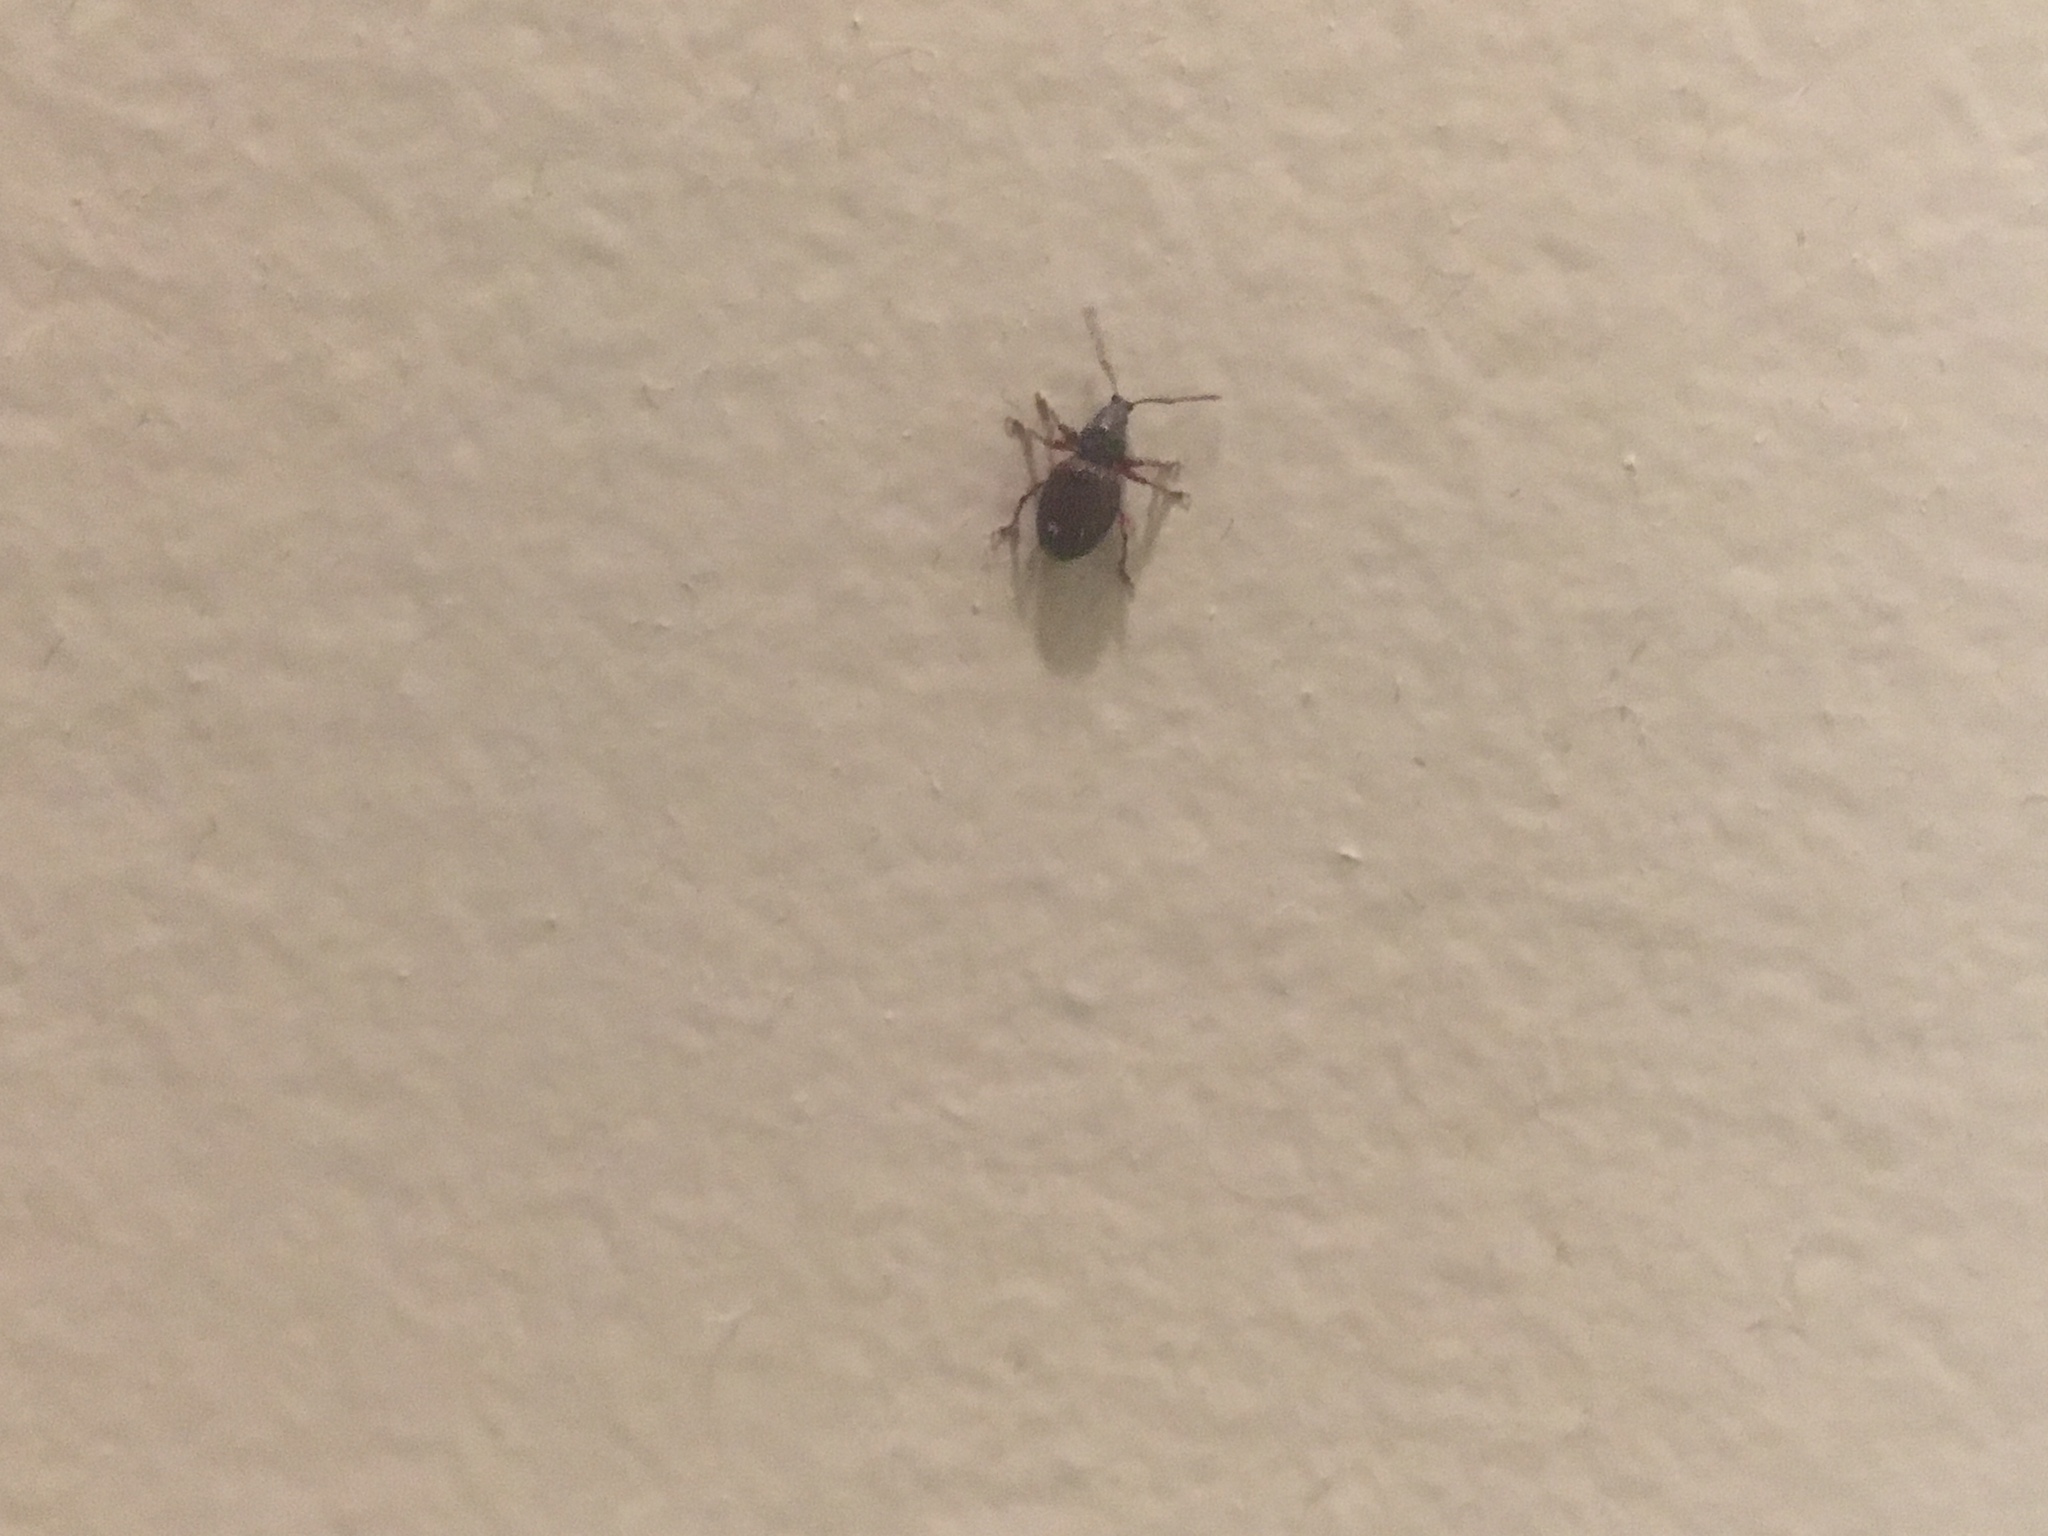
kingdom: Animalia
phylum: Arthropoda
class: Insecta
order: Coleoptera
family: Curculionidae
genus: Otiorhynchus
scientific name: Otiorhynchus ovatus
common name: Strawberry root weevil
